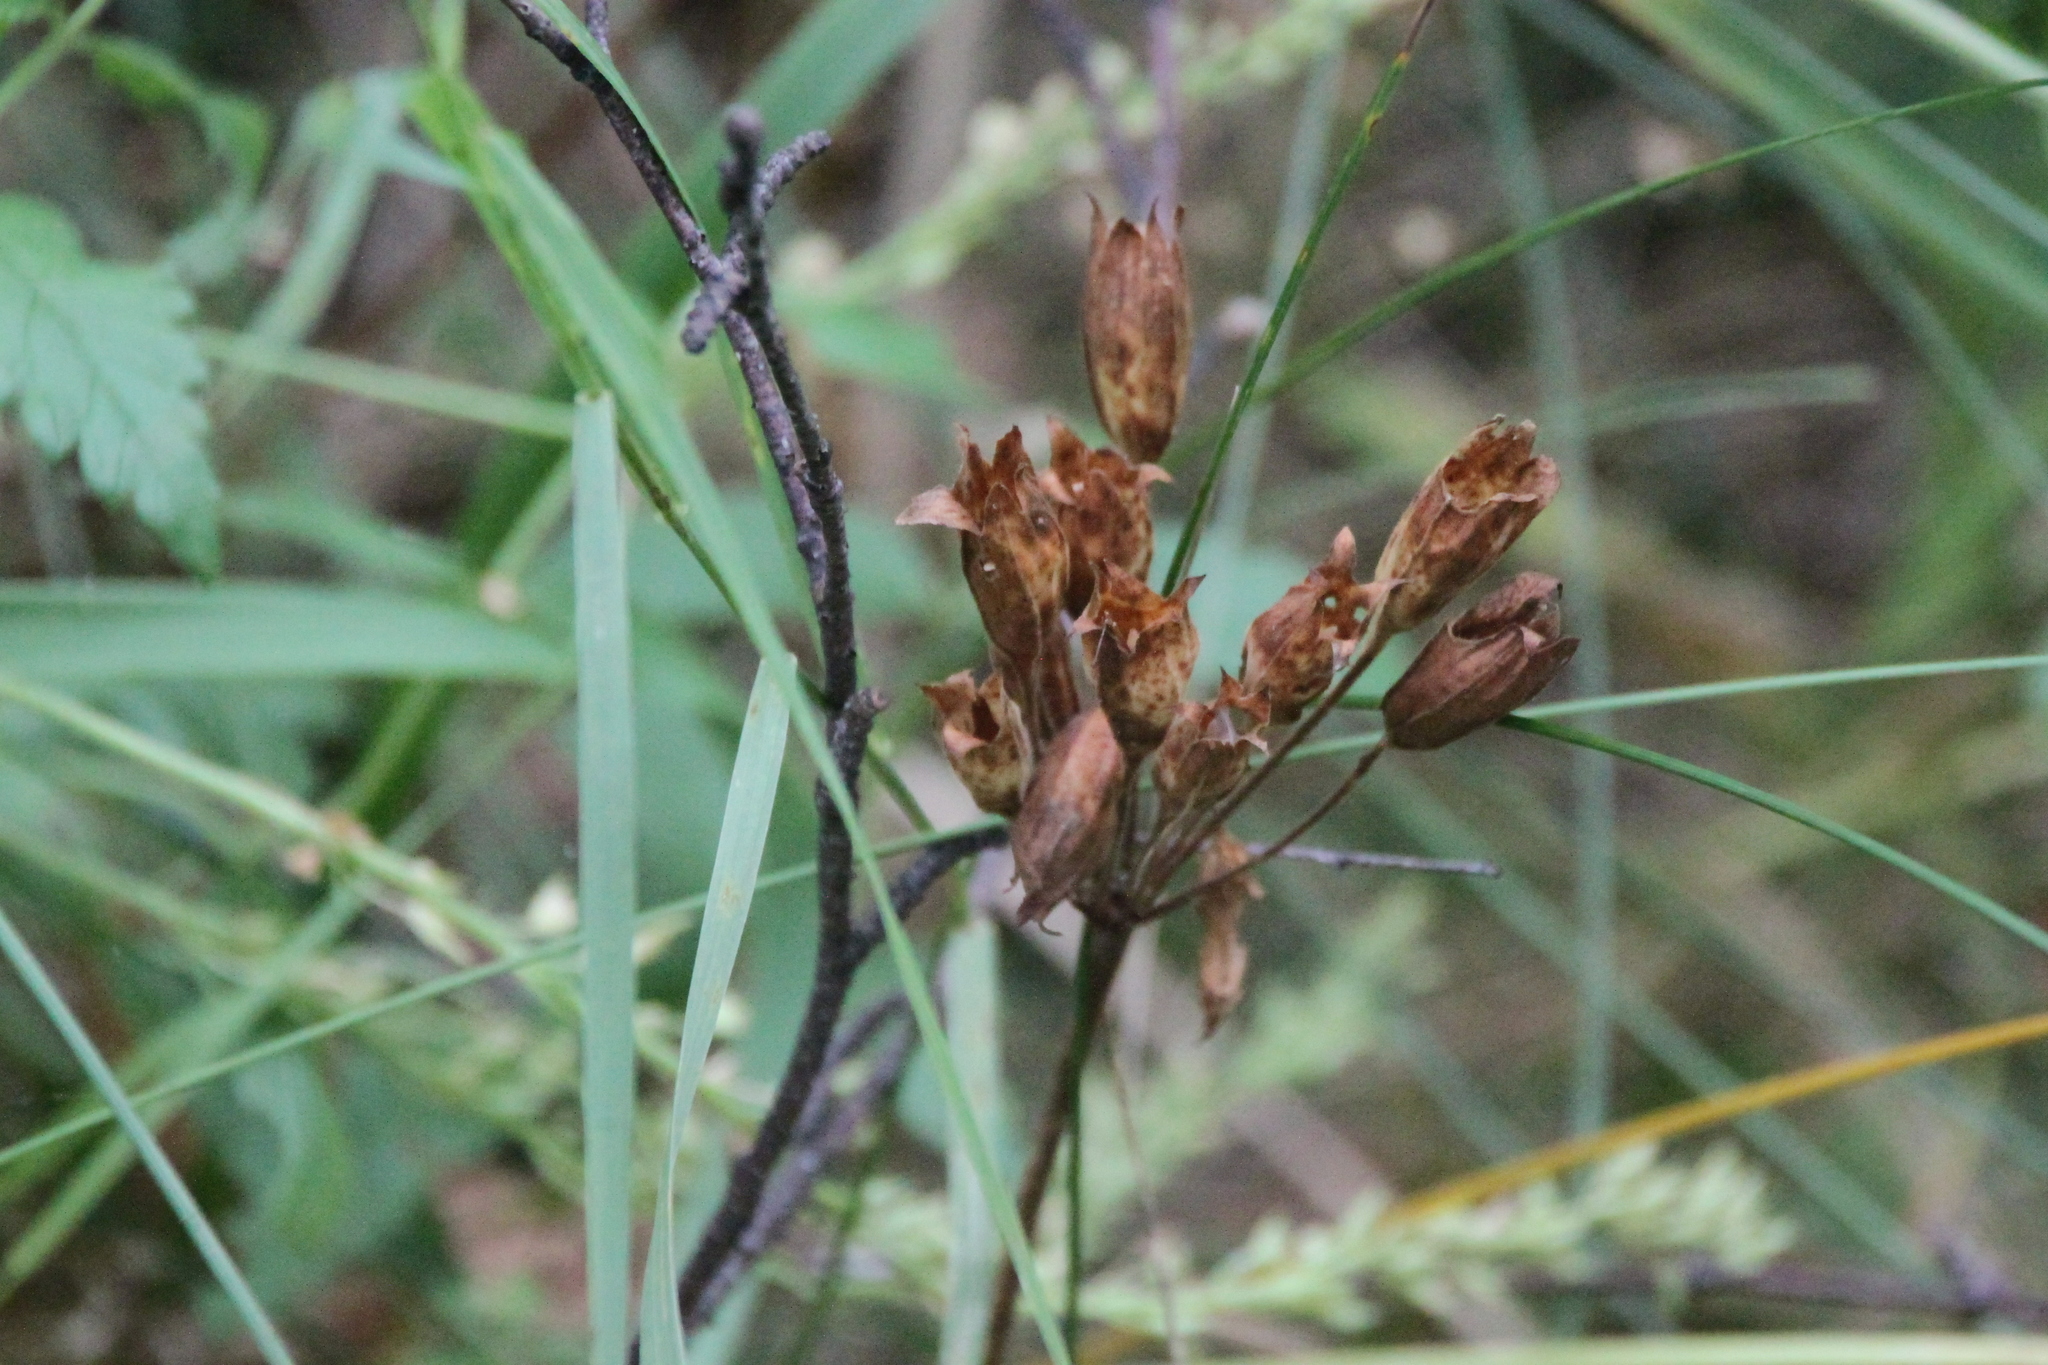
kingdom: Plantae
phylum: Tracheophyta
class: Magnoliopsida
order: Ericales
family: Primulaceae
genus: Primula
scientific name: Primula veris
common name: Cowslip
